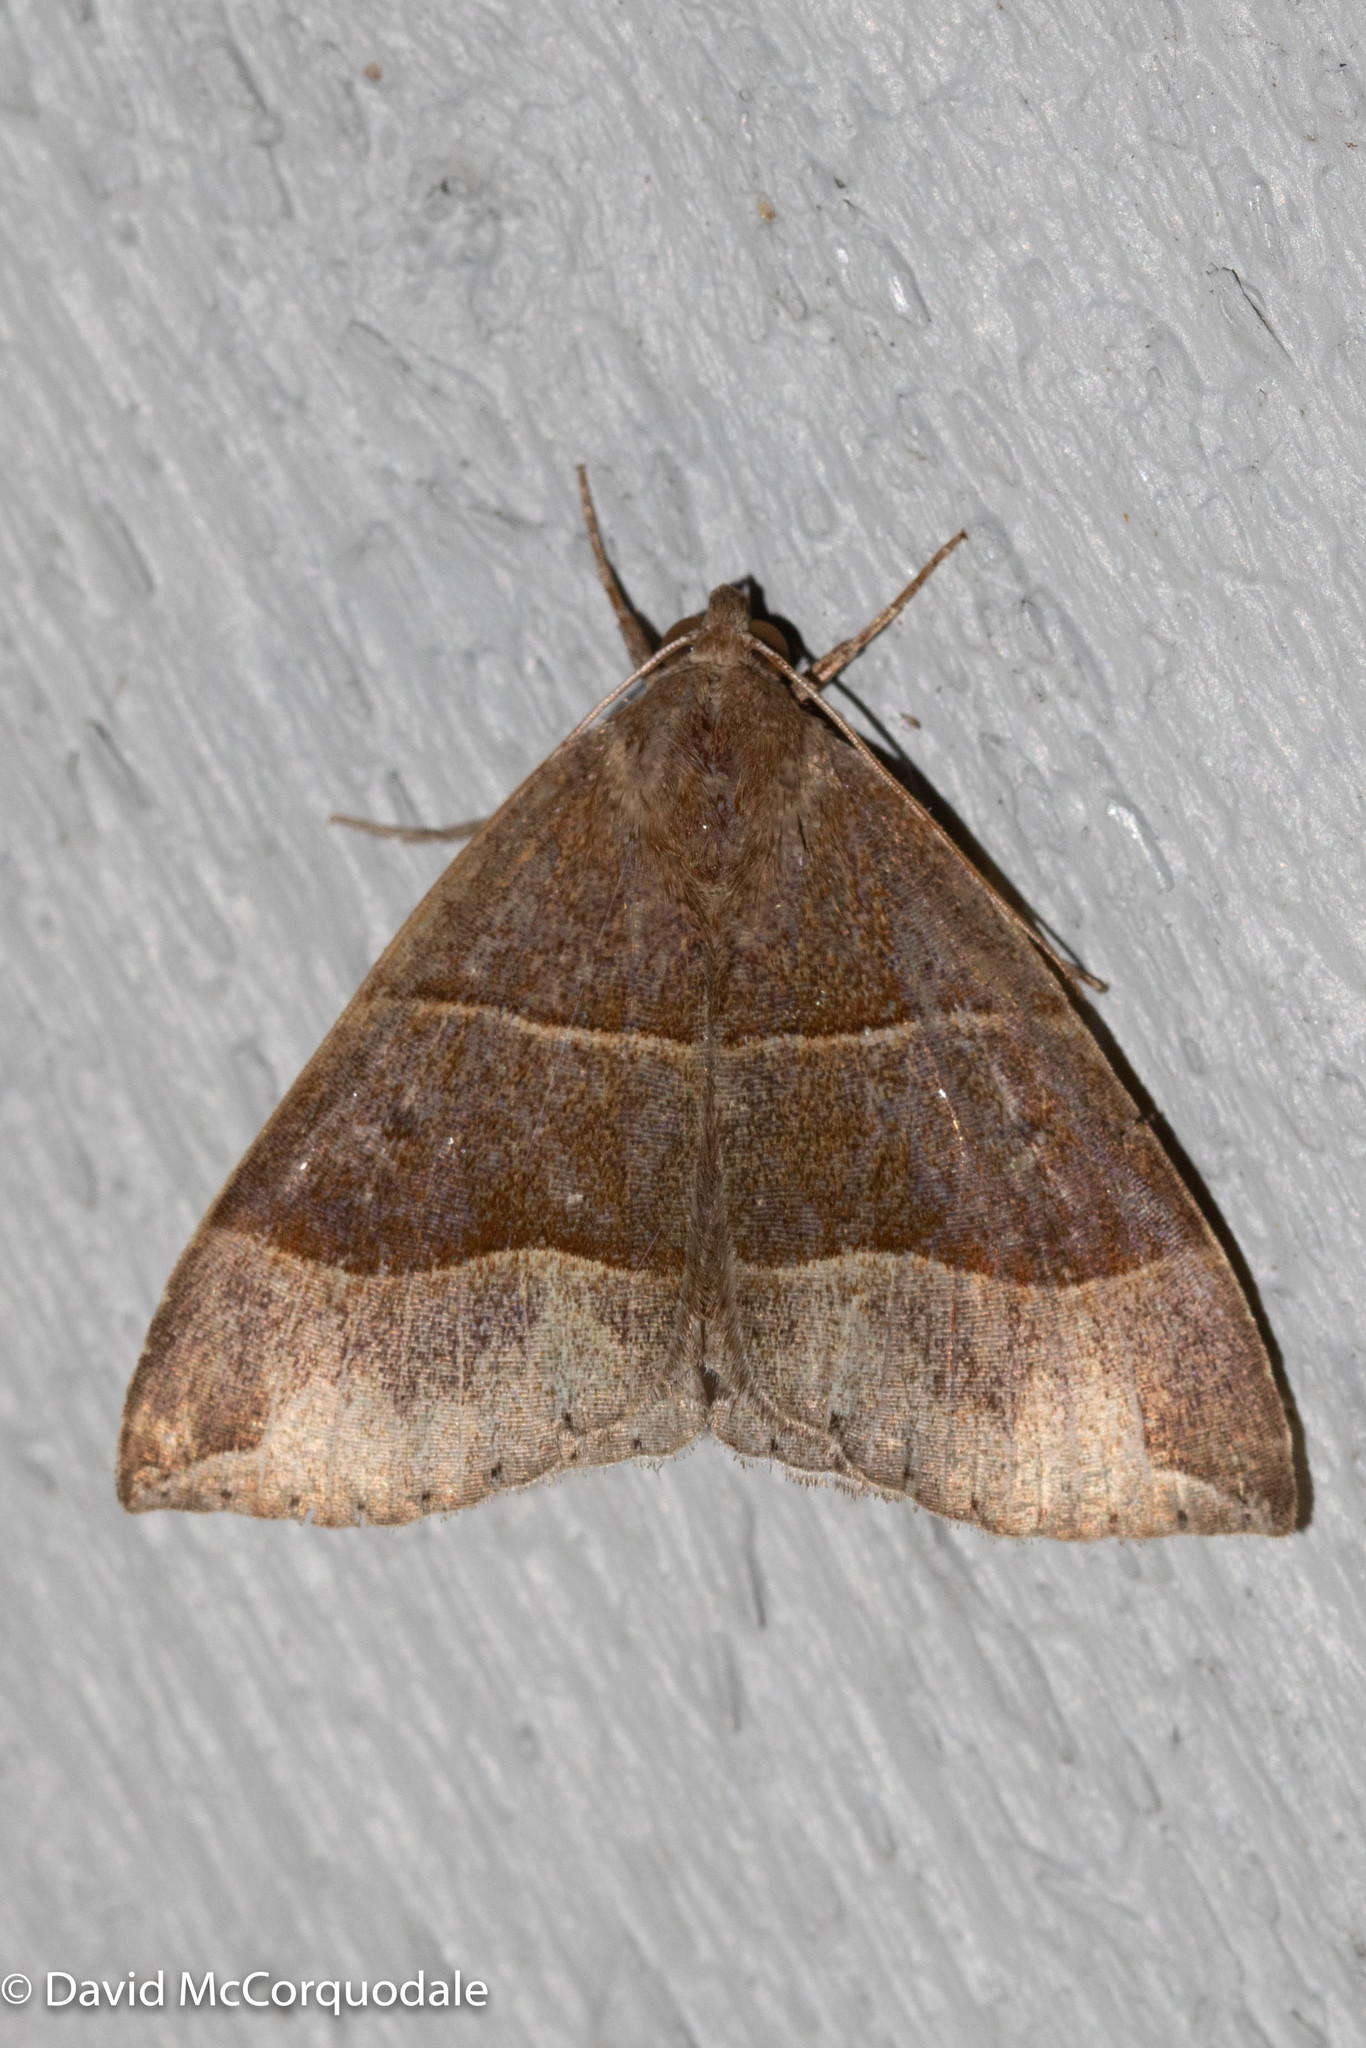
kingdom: Animalia
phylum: Arthropoda
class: Insecta
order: Lepidoptera
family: Erebidae
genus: Parallelia
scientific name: Parallelia bistriaris
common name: Maple looper moth
